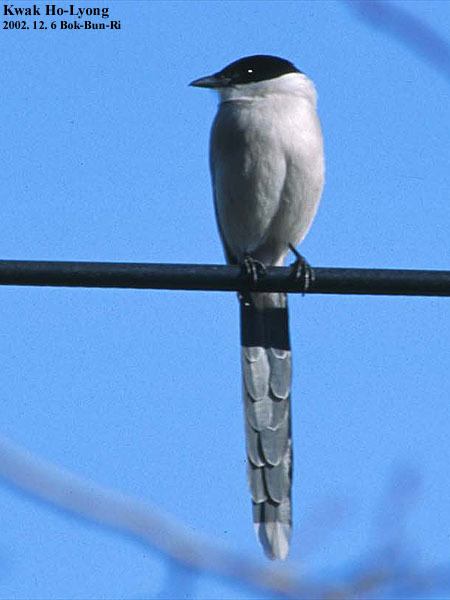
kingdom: Animalia
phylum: Chordata
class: Aves
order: Passeriformes
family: Corvidae
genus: Cyanopica
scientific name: Cyanopica cyanus
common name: Azure-winged magpie
